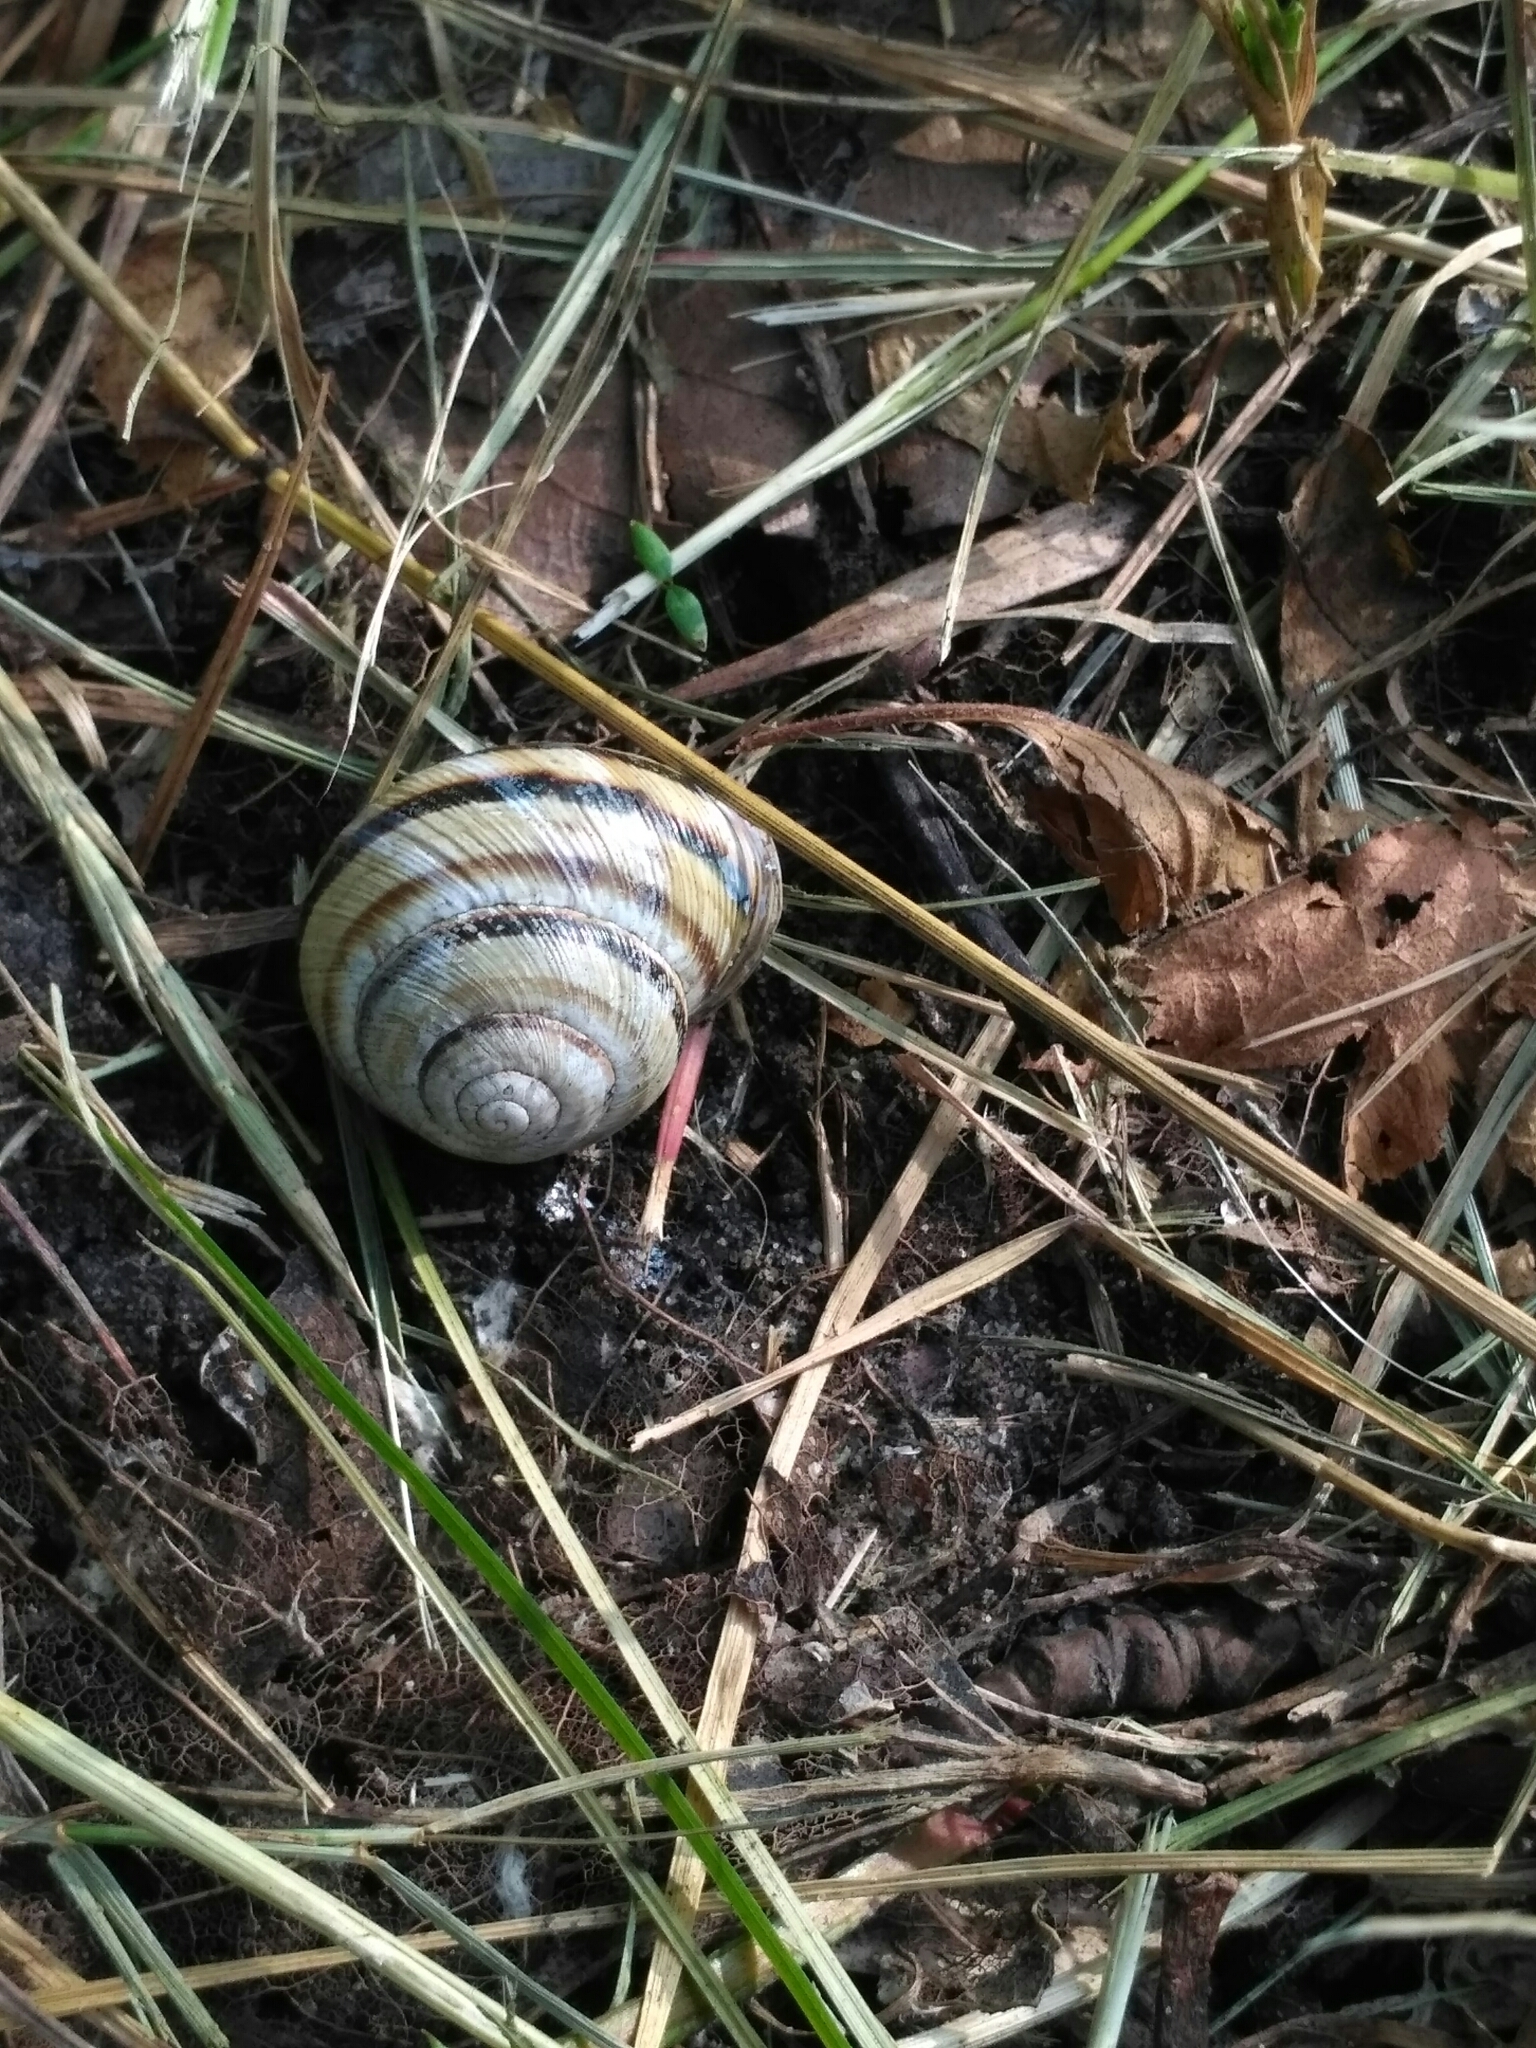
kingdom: Animalia
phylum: Mollusca
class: Gastropoda
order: Stylommatophora
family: Helicidae
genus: Caucasotachea
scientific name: Caucasotachea vindobonensis
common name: European helicid land snail
